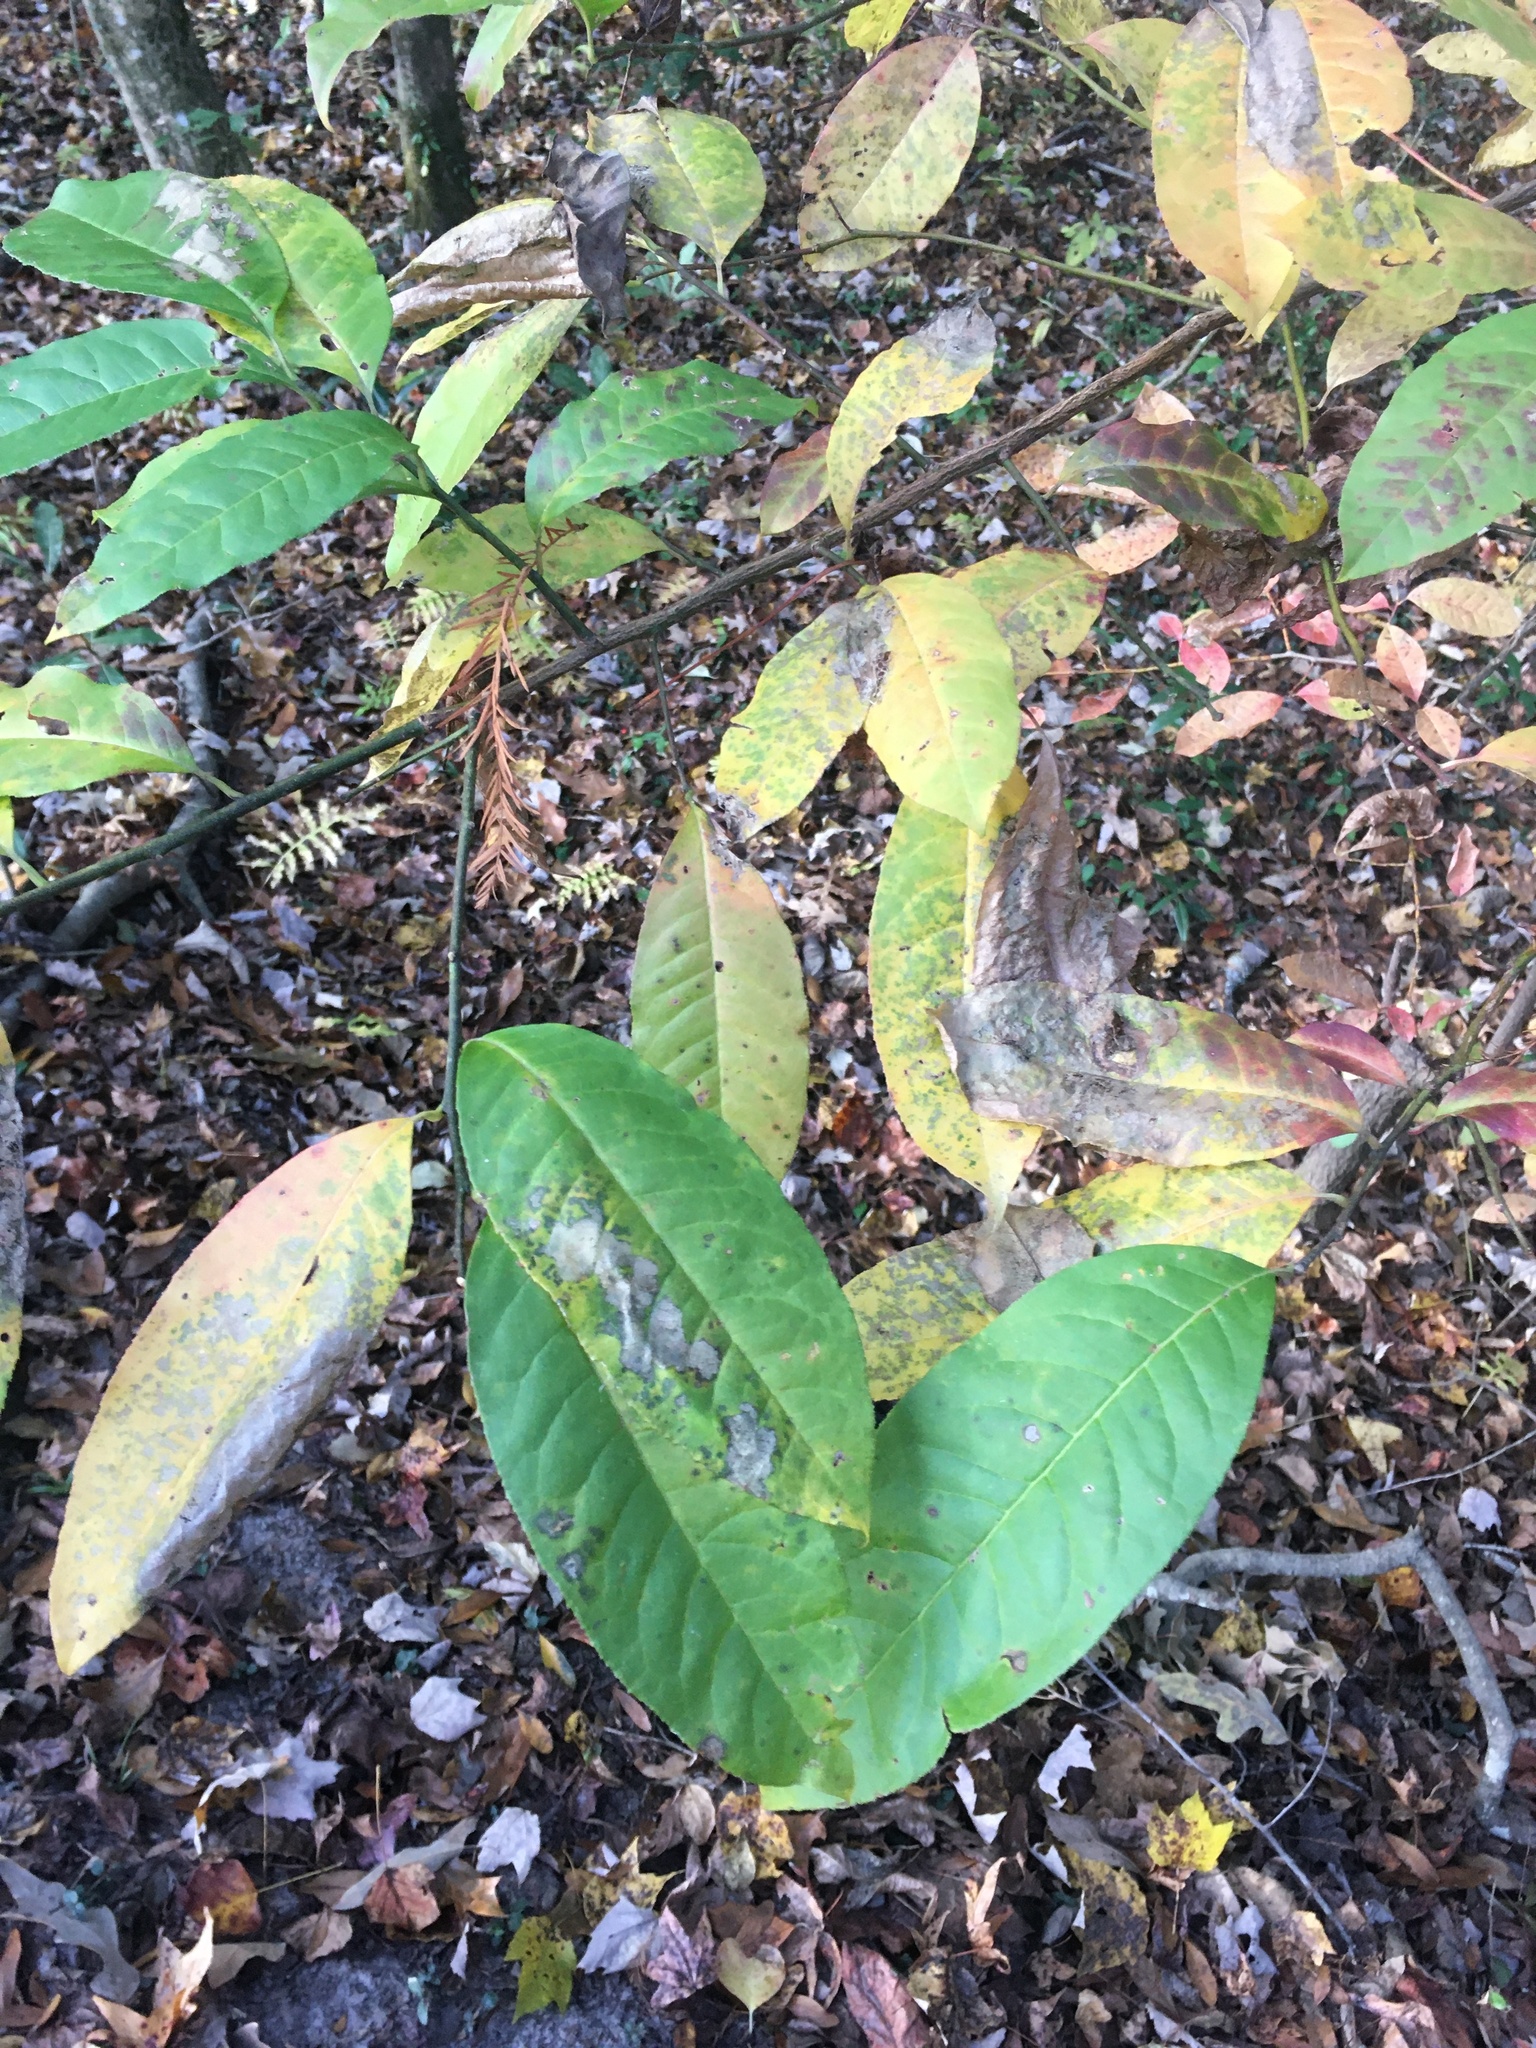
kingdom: Plantae
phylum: Tracheophyta
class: Magnoliopsida
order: Ericales
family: Ericaceae
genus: Oxydendrum
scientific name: Oxydendrum arboreum
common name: Sourwood
